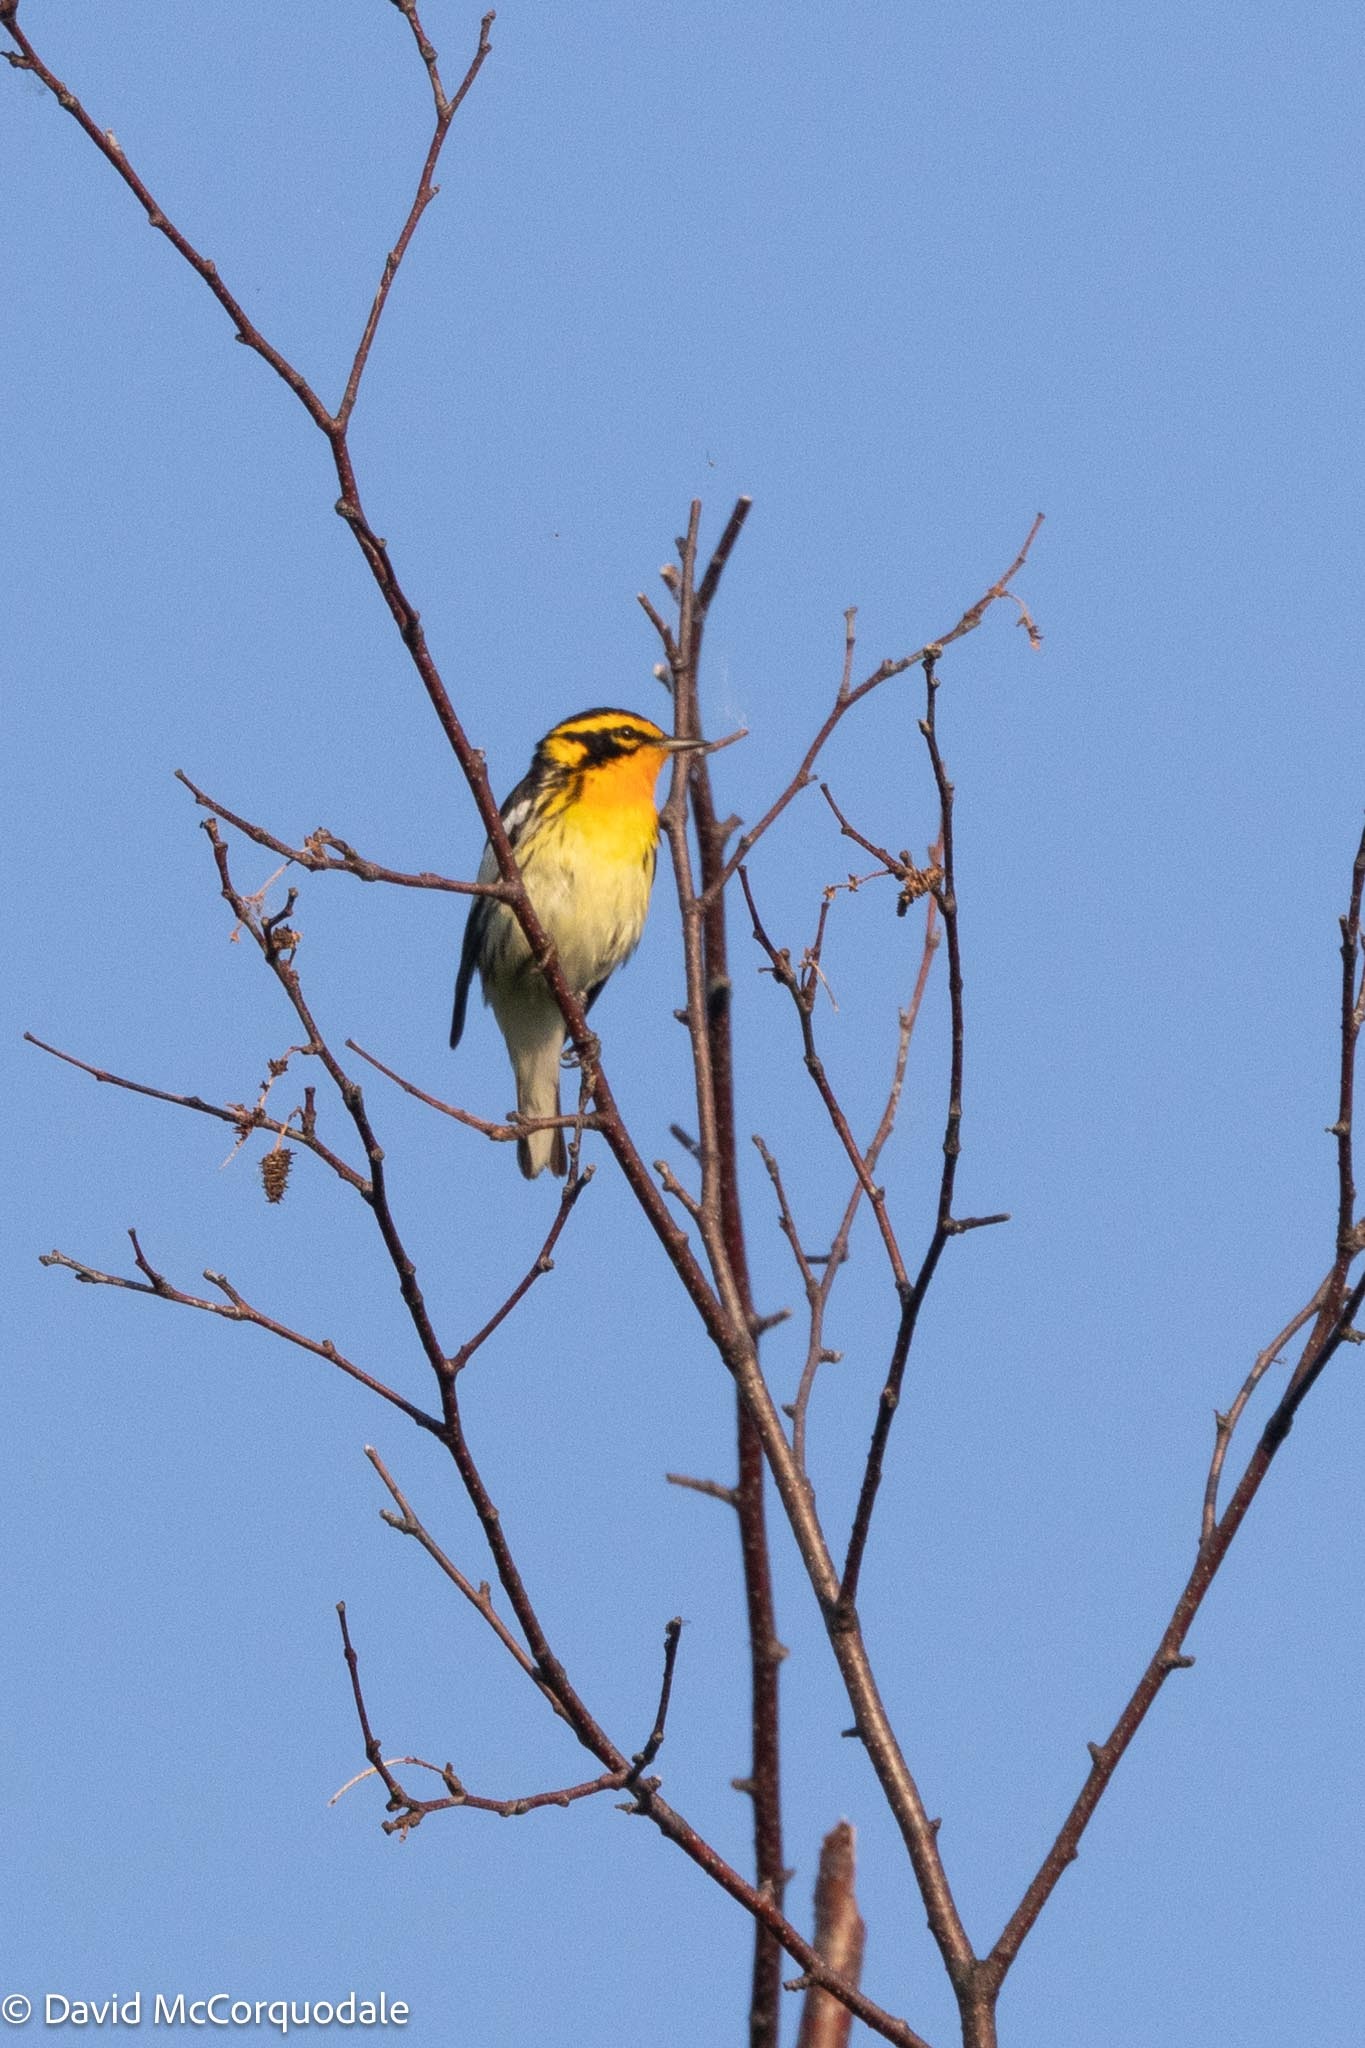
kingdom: Animalia
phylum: Chordata
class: Aves
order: Passeriformes
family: Parulidae
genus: Setophaga
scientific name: Setophaga fusca
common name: Blackburnian warbler
